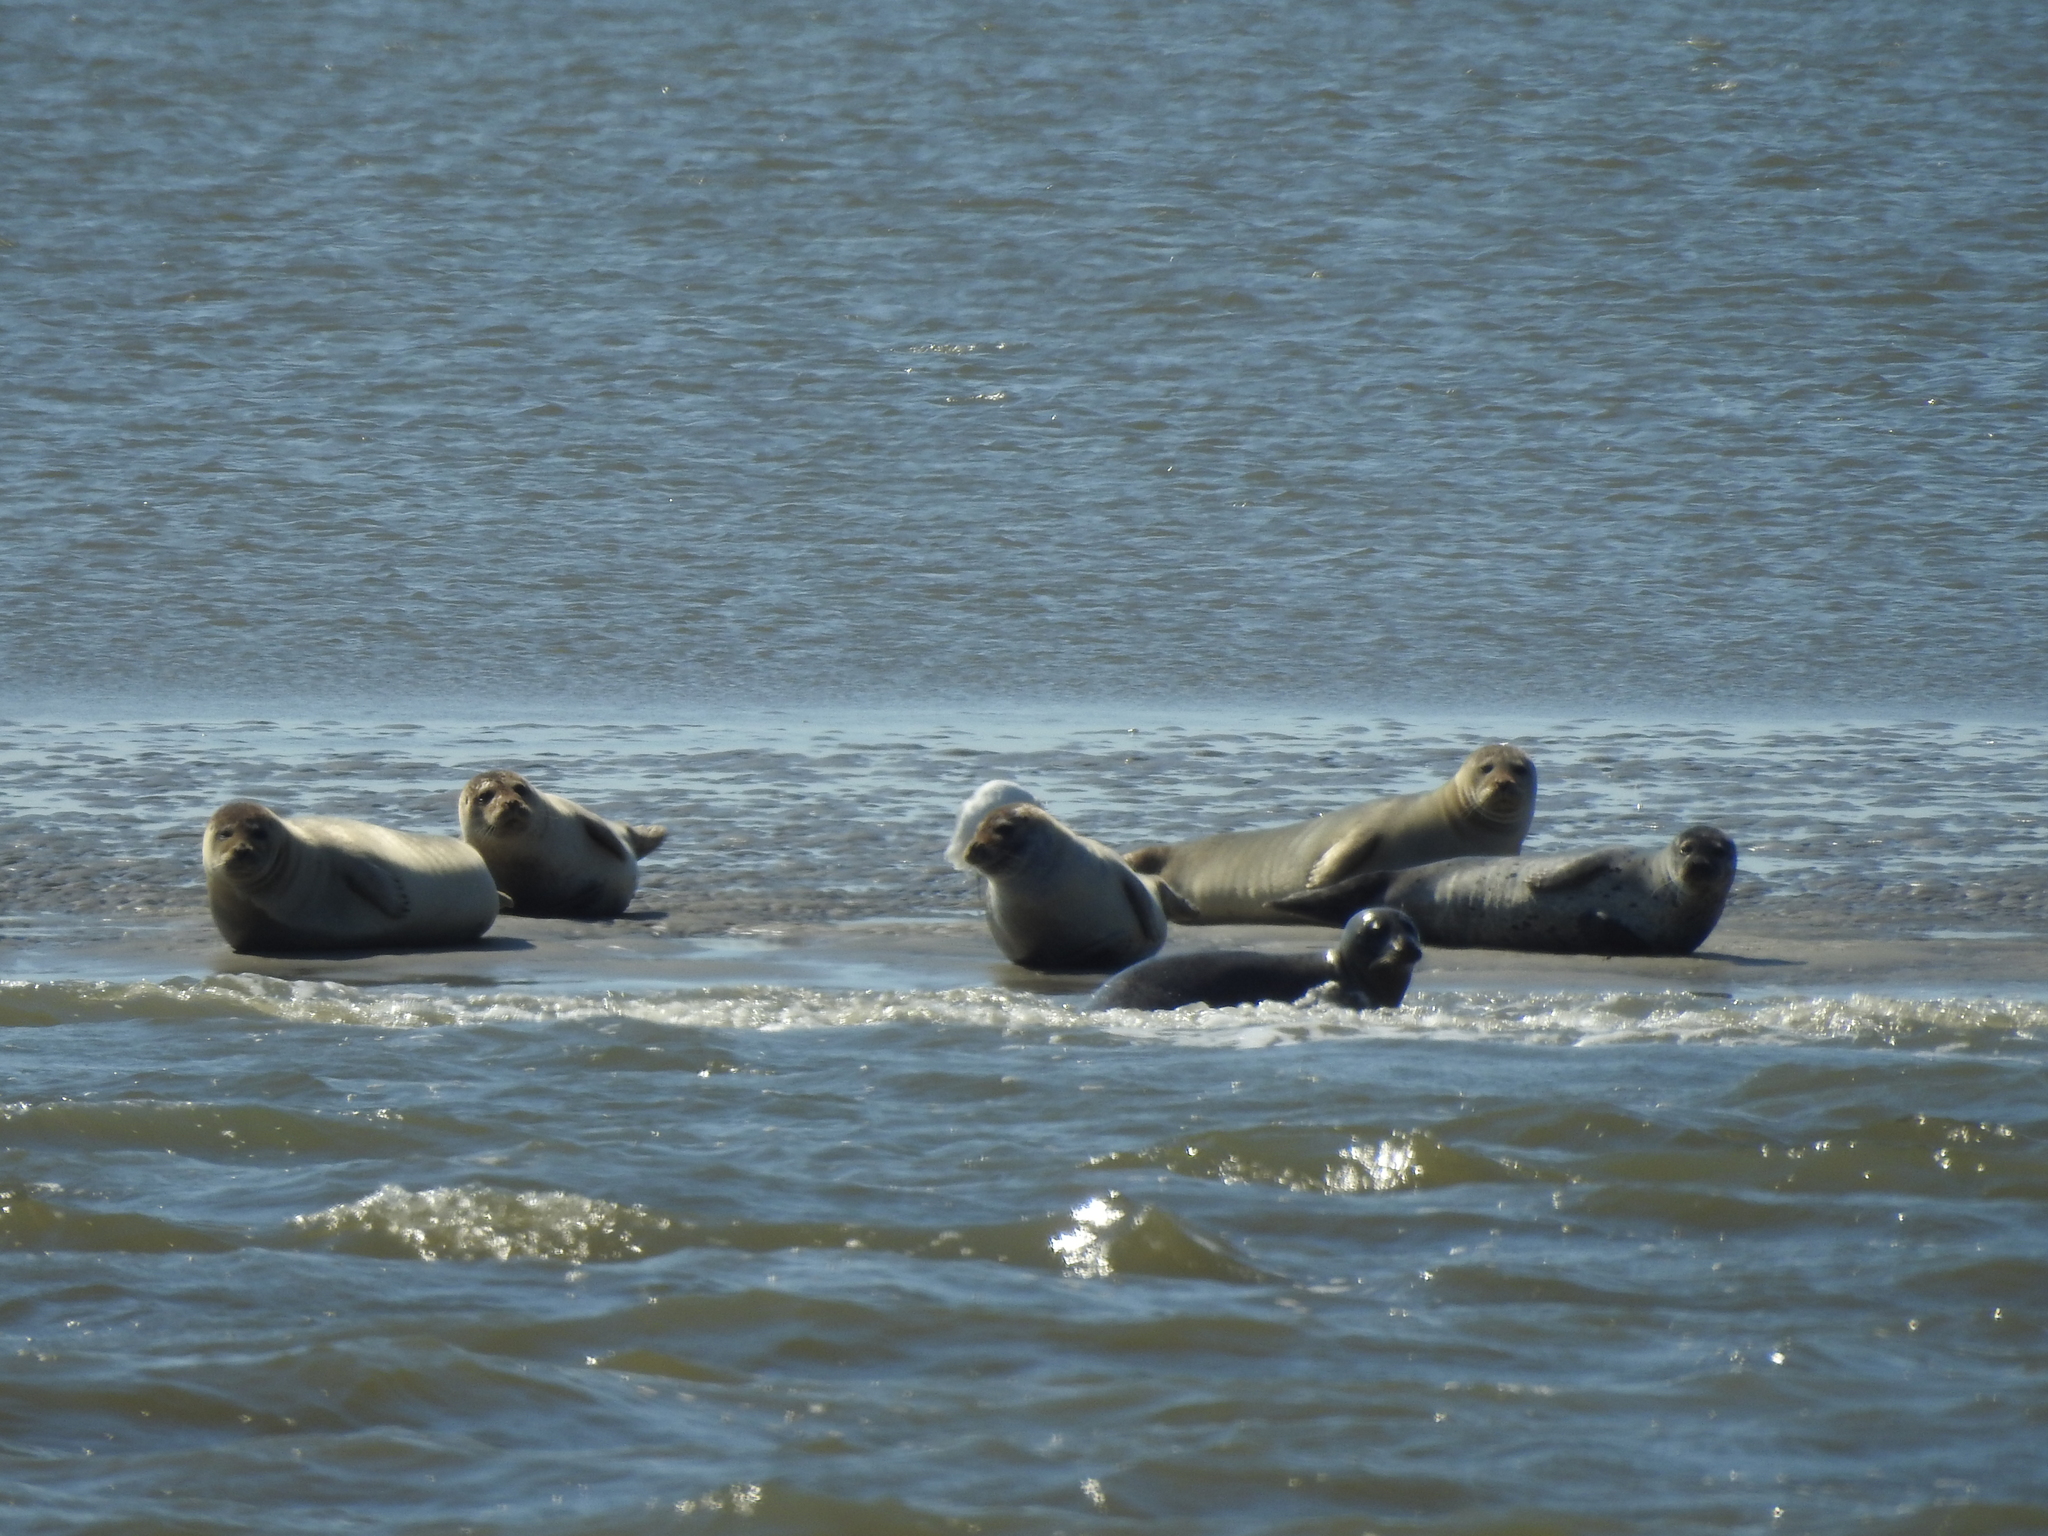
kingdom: Animalia
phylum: Chordata
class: Mammalia
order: Carnivora
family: Phocidae
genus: Phoca
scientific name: Phoca vitulina
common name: Harbor seal
